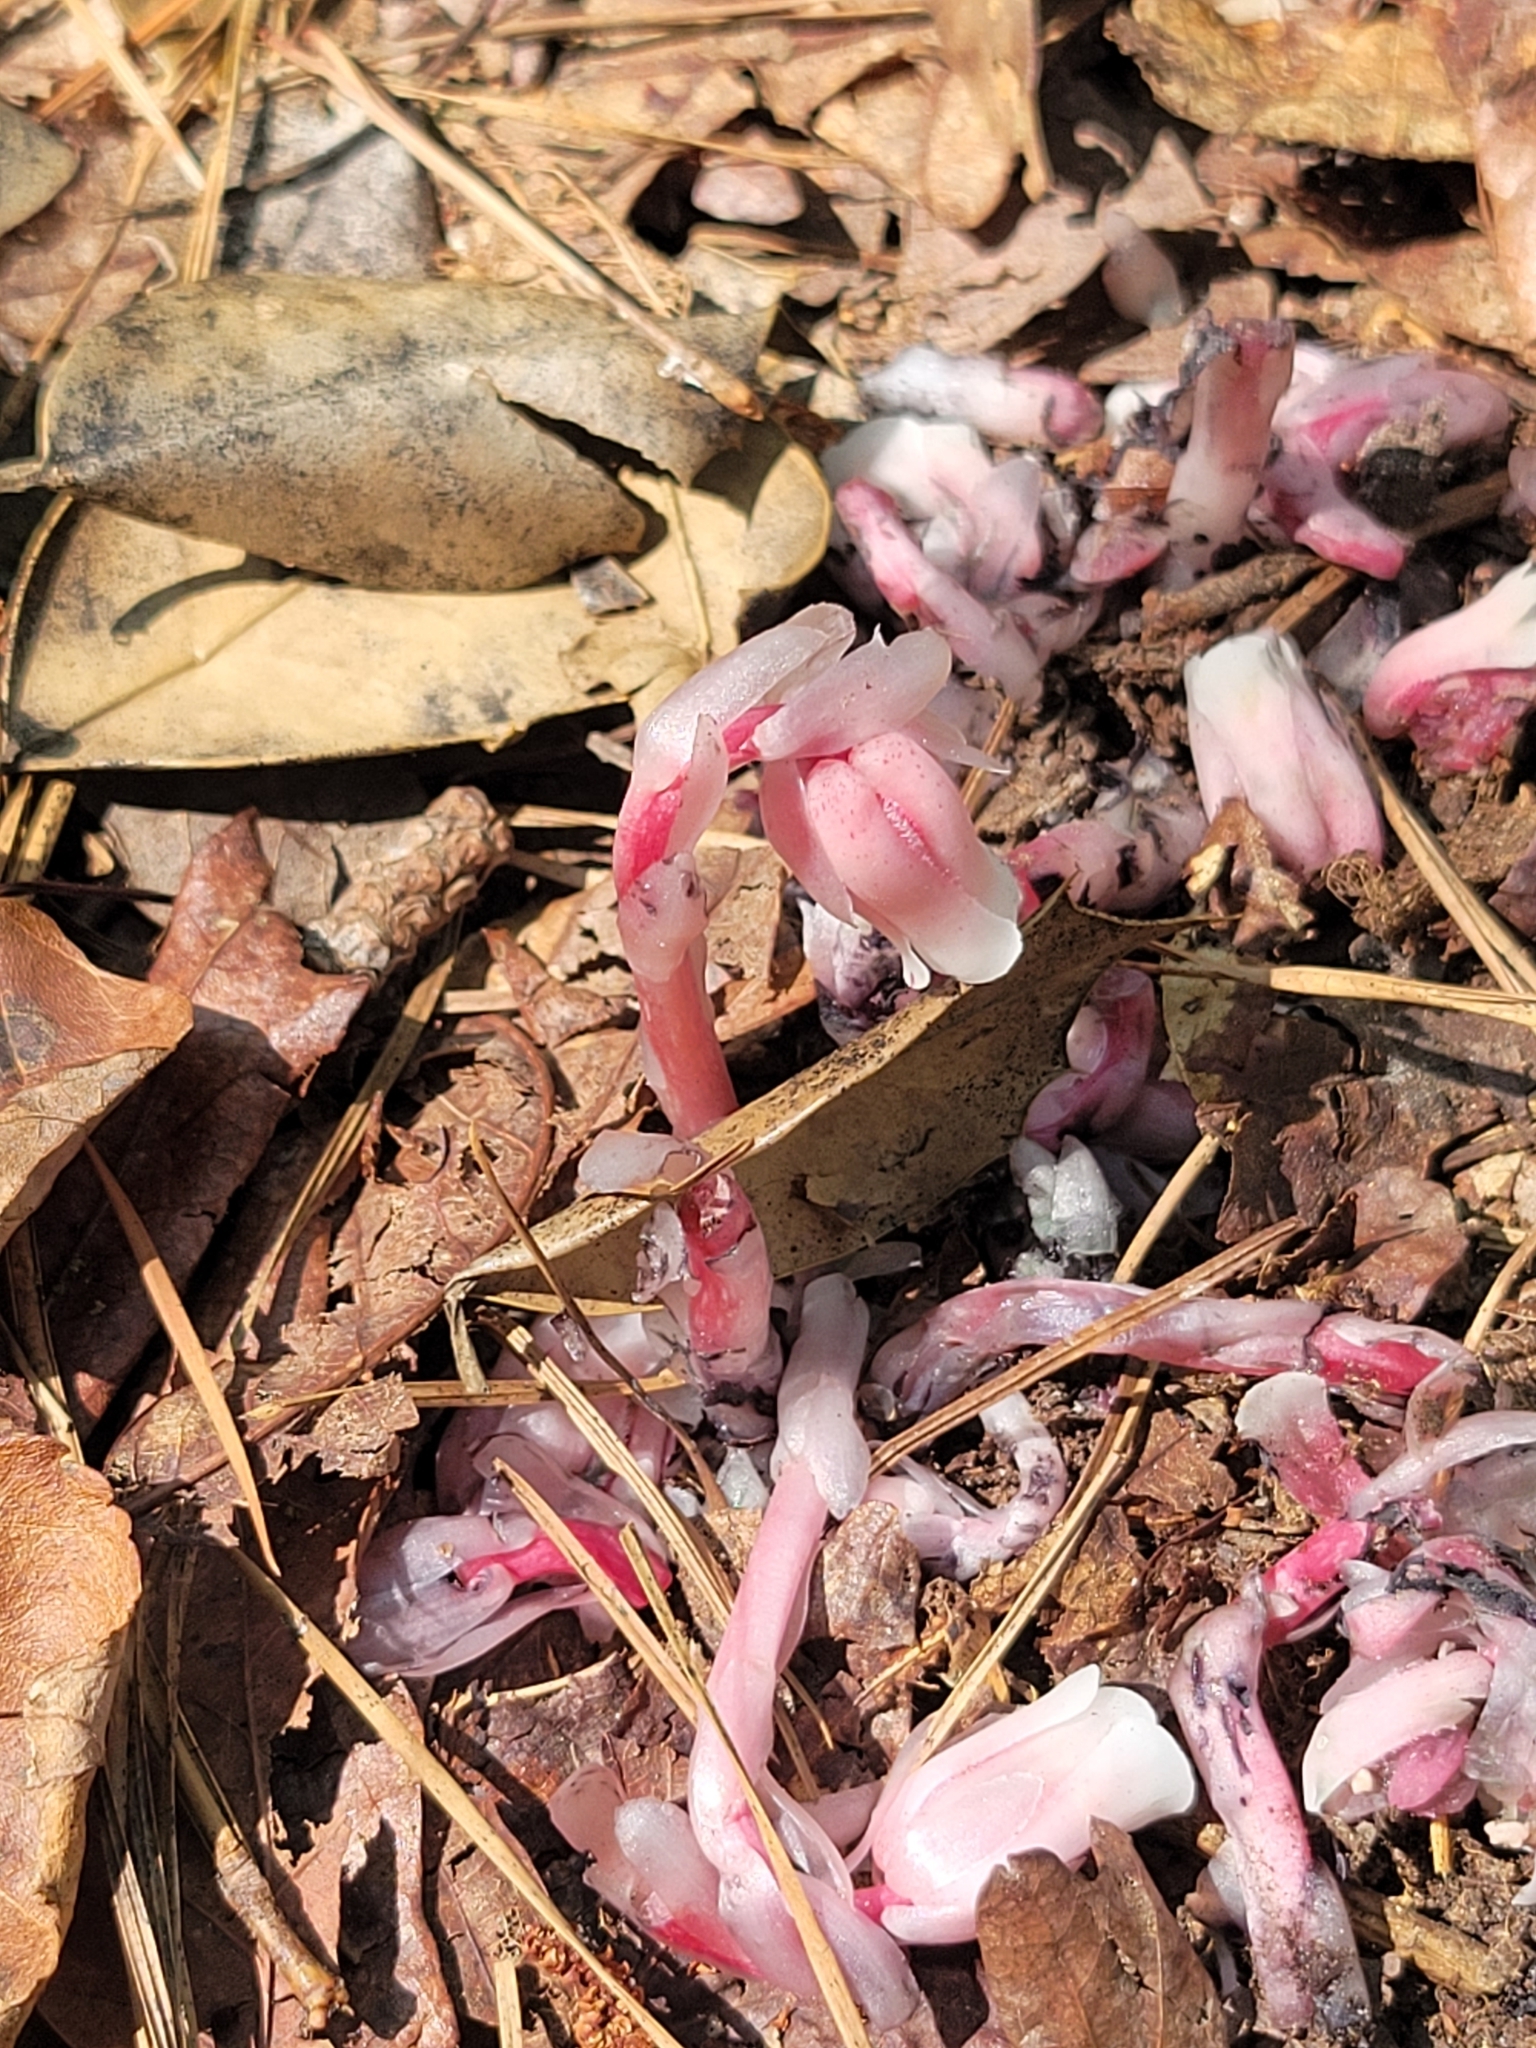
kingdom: Plantae
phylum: Tracheophyta
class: Magnoliopsida
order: Ericales
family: Ericaceae
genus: Monotropa
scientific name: Monotropa uniflora
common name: Convulsion root
